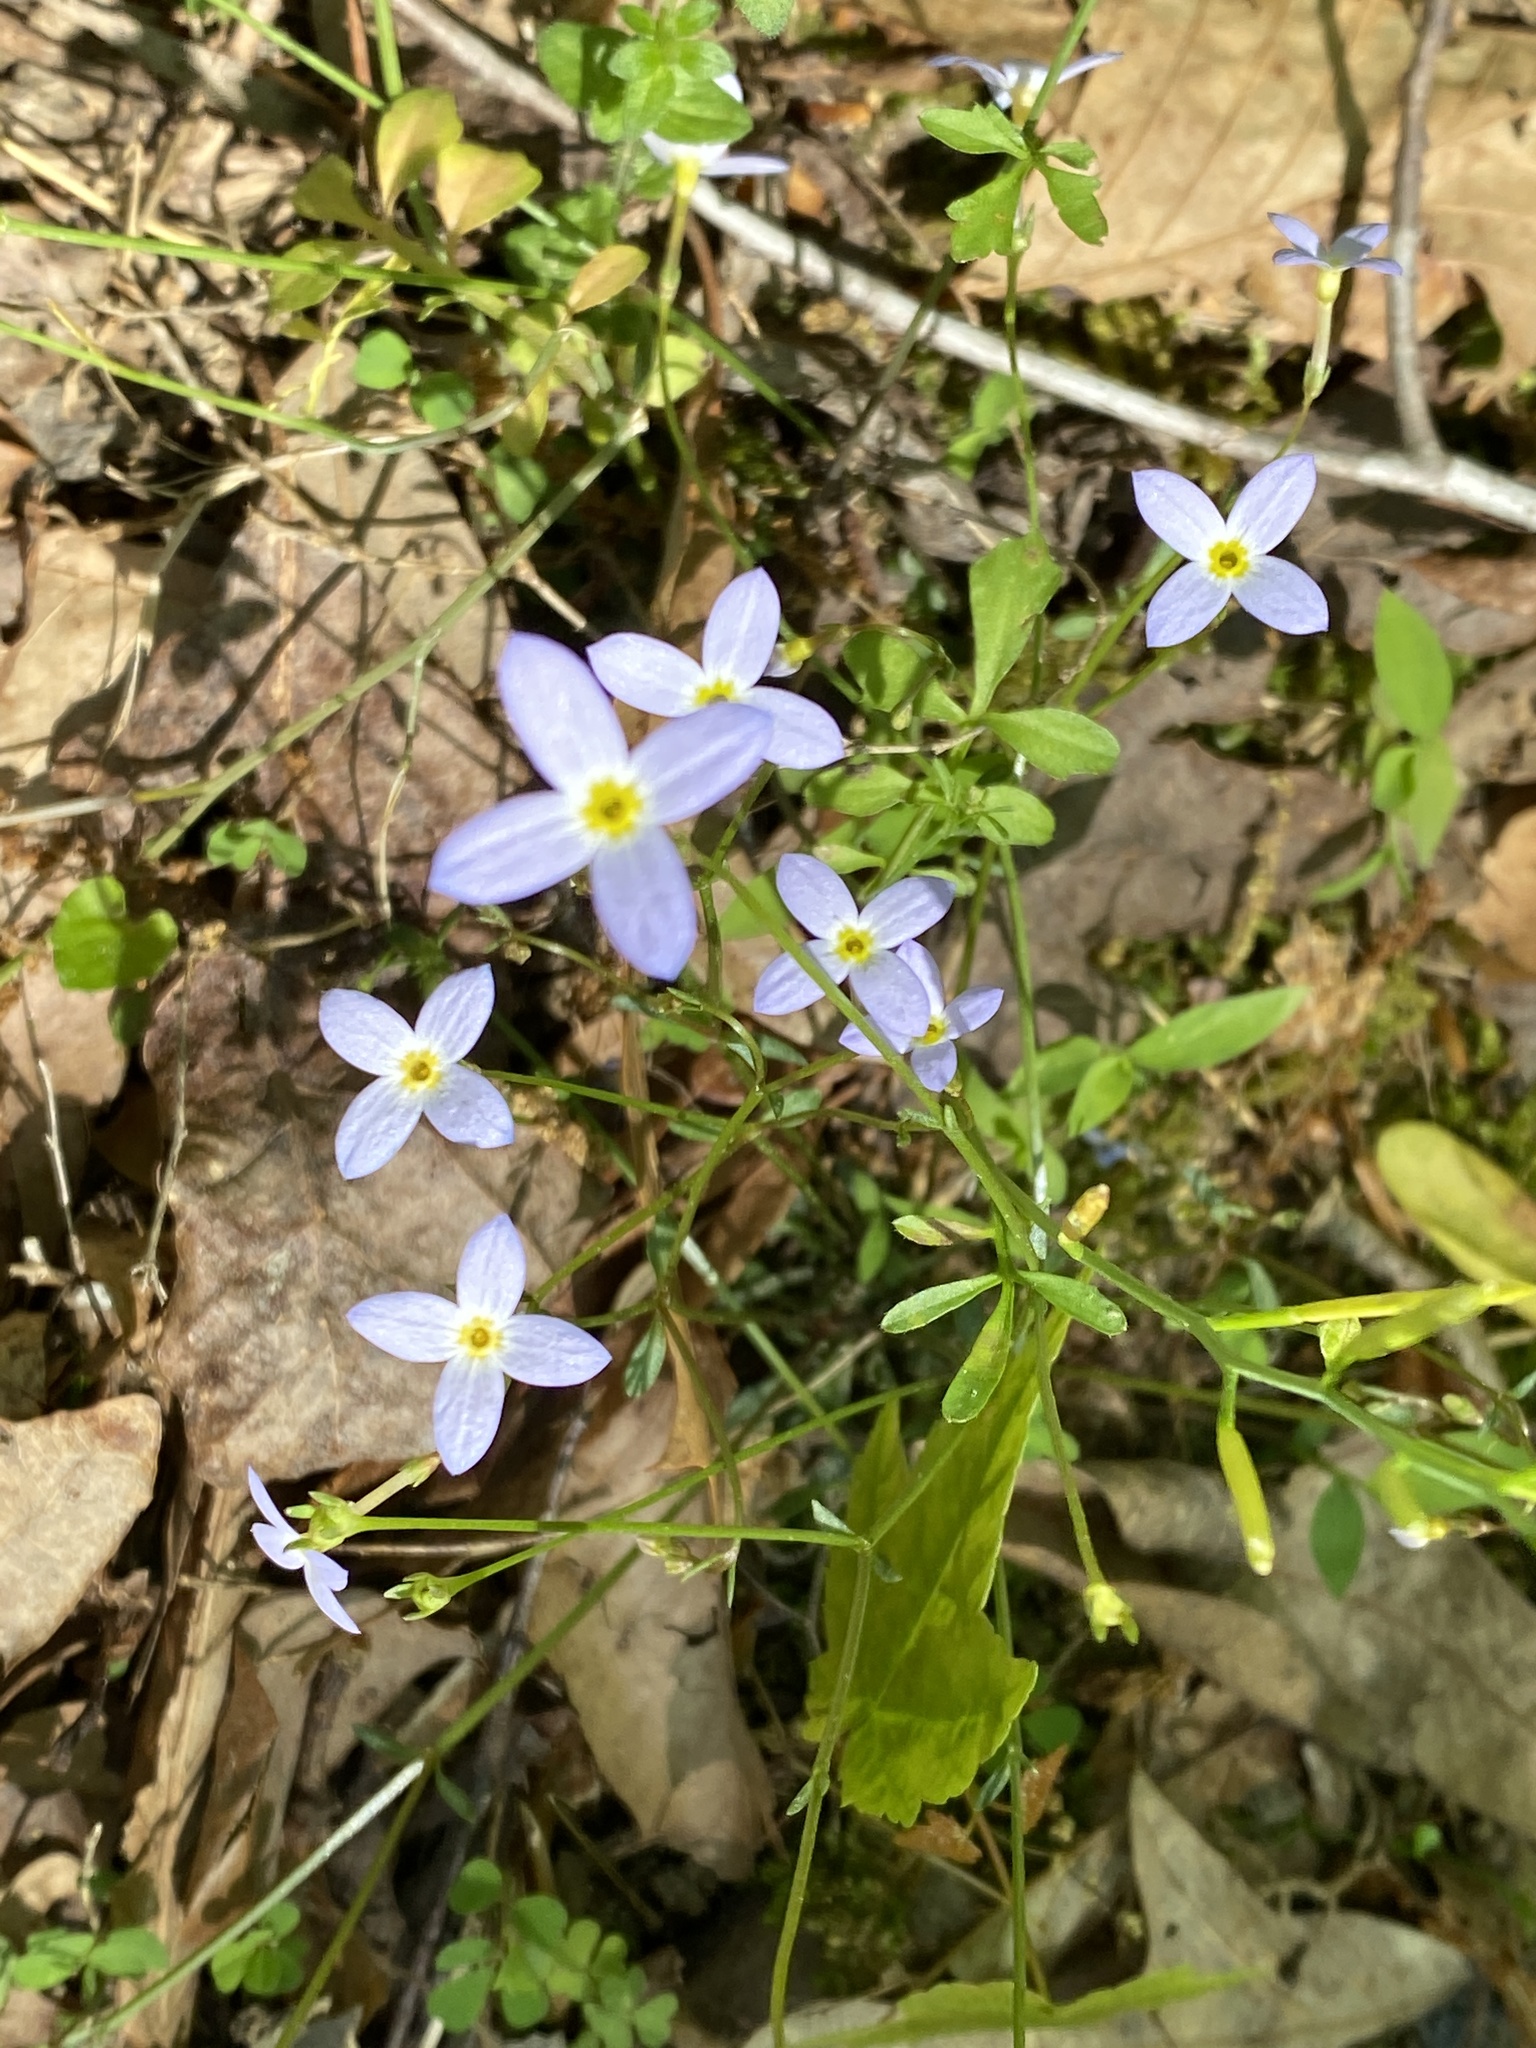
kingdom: Plantae
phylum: Tracheophyta
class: Magnoliopsida
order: Gentianales
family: Rubiaceae
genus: Houstonia
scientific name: Houstonia caerulea
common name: Bluets
